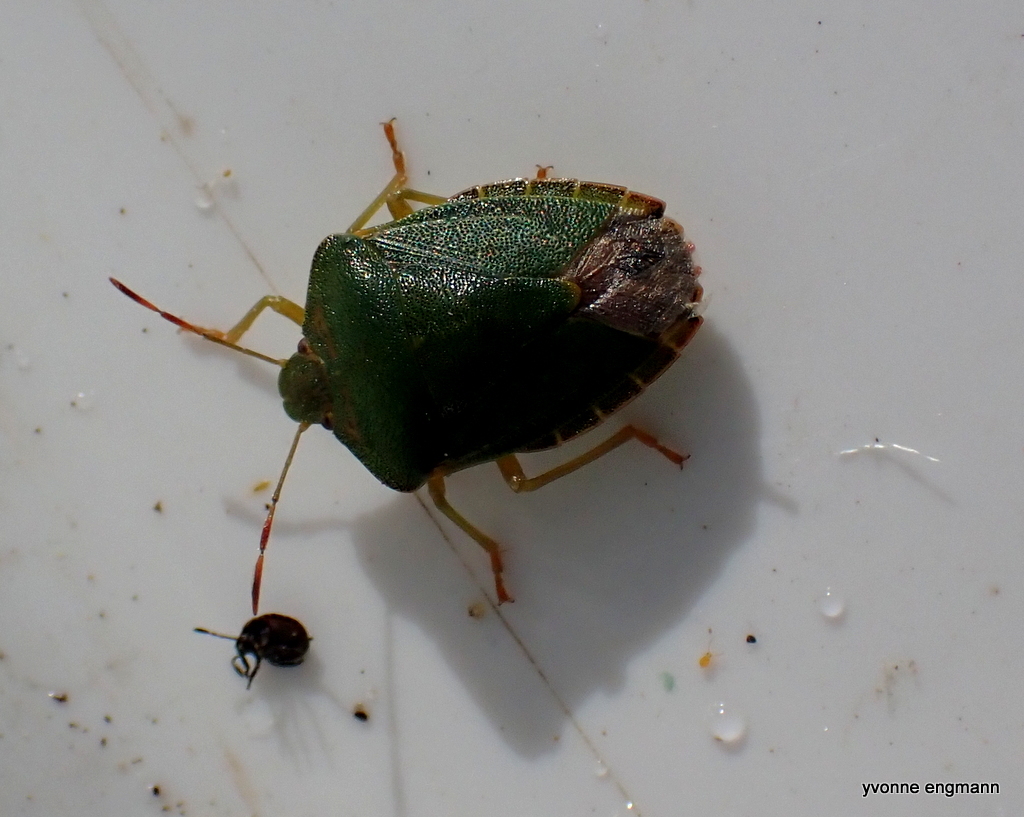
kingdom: Animalia
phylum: Arthropoda
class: Insecta
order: Hemiptera
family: Pentatomidae
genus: Palomena
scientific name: Palomena prasina
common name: Green shieldbug
